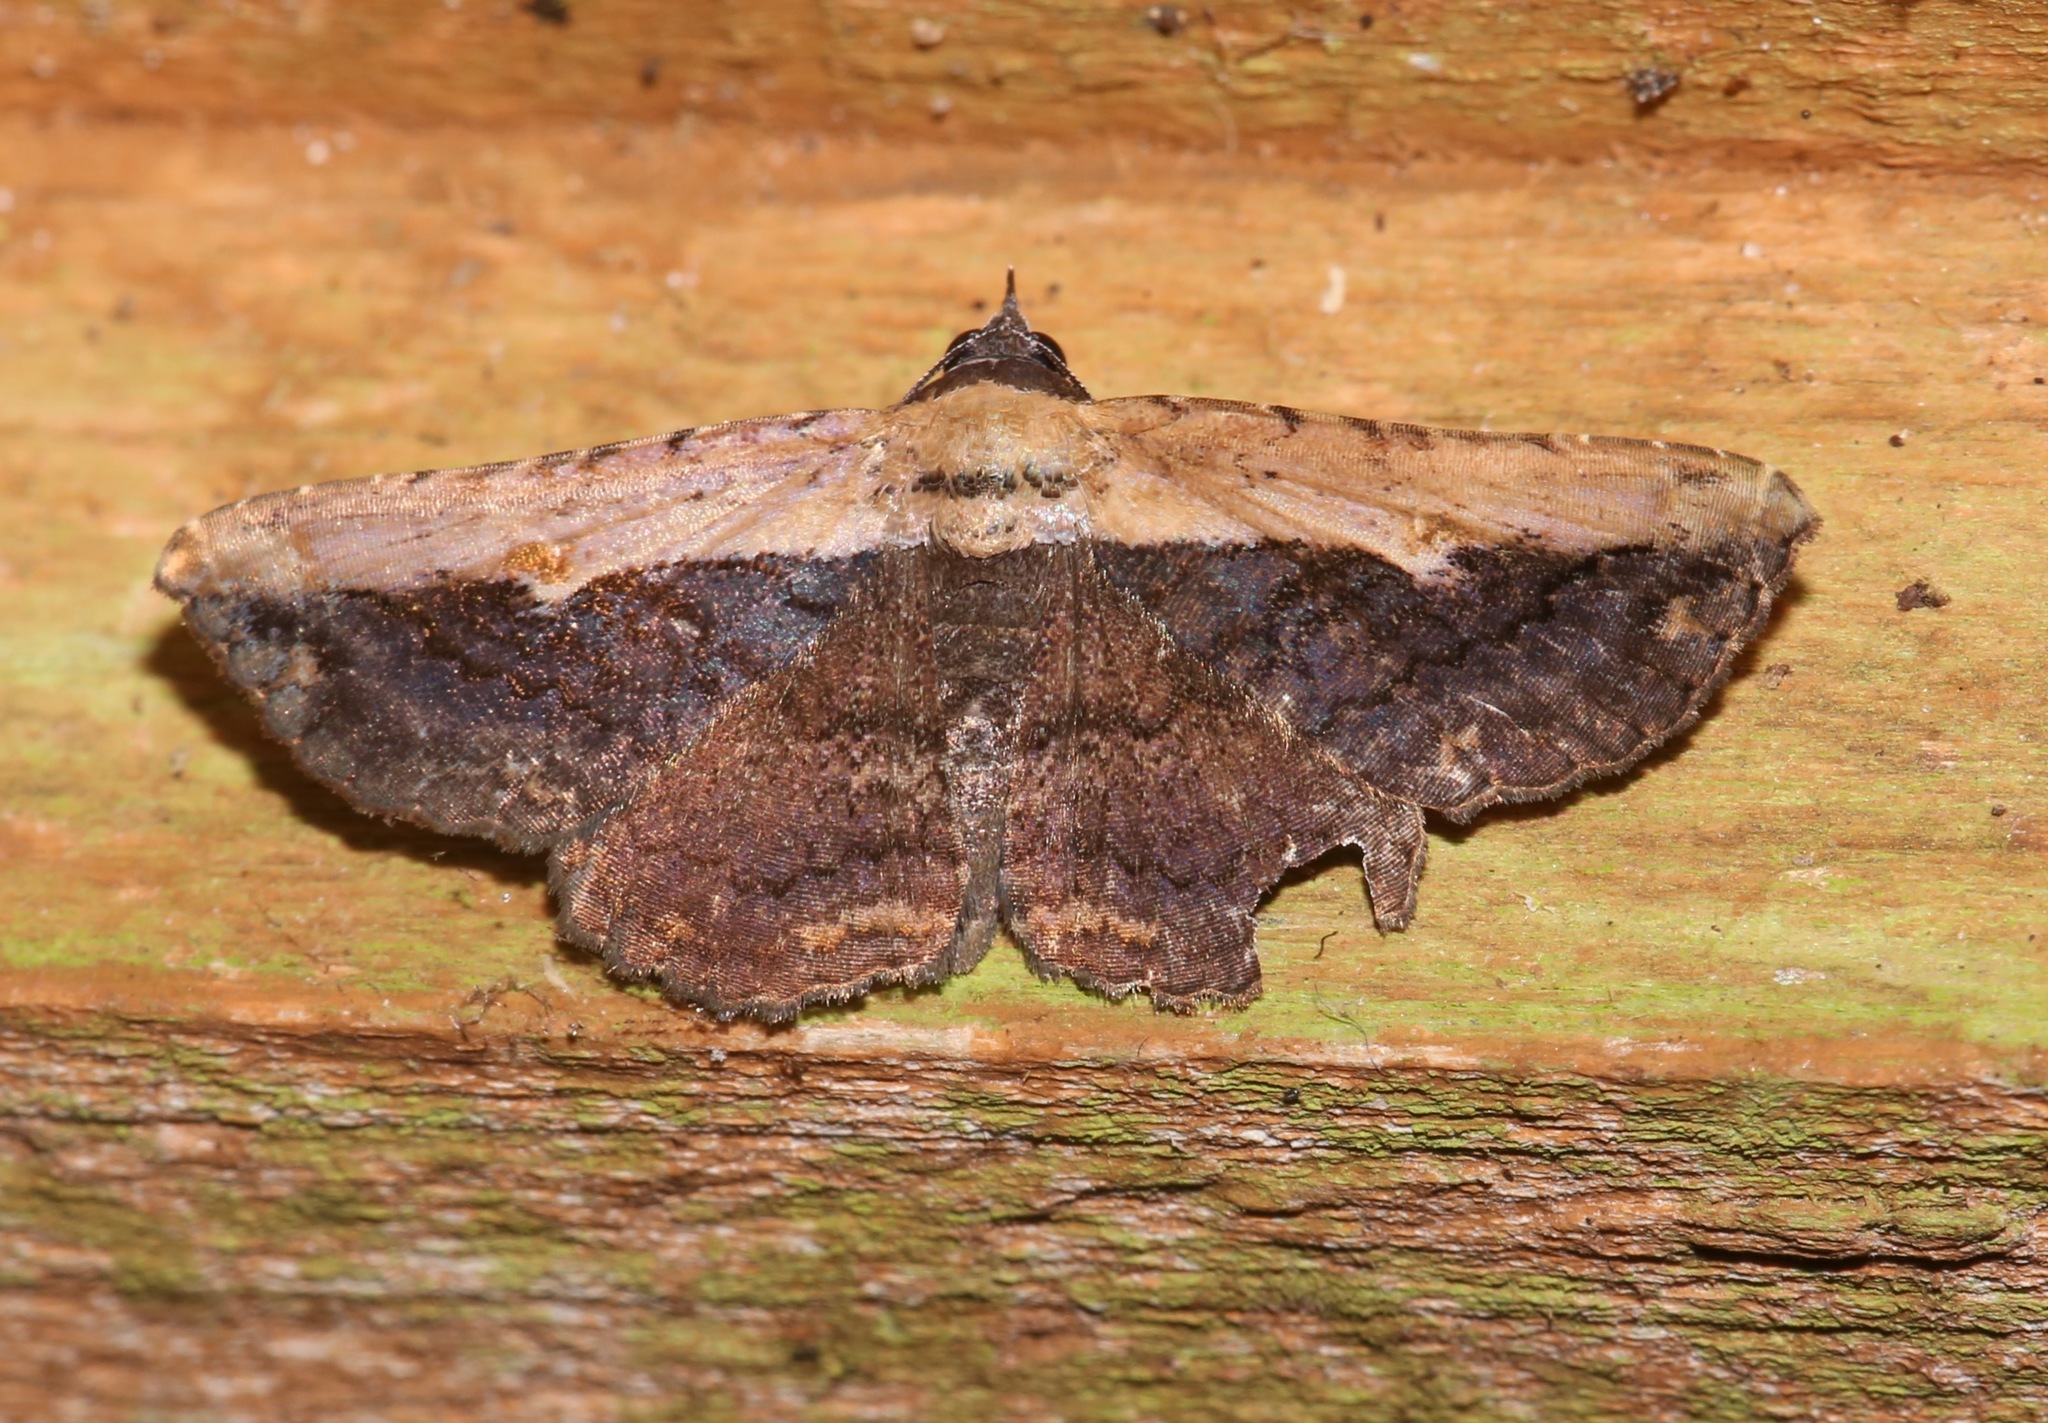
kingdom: Animalia
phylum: Arthropoda
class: Insecta
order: Lepidoptera
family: Erebidae
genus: Selenisa
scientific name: Selenisa sueroides
